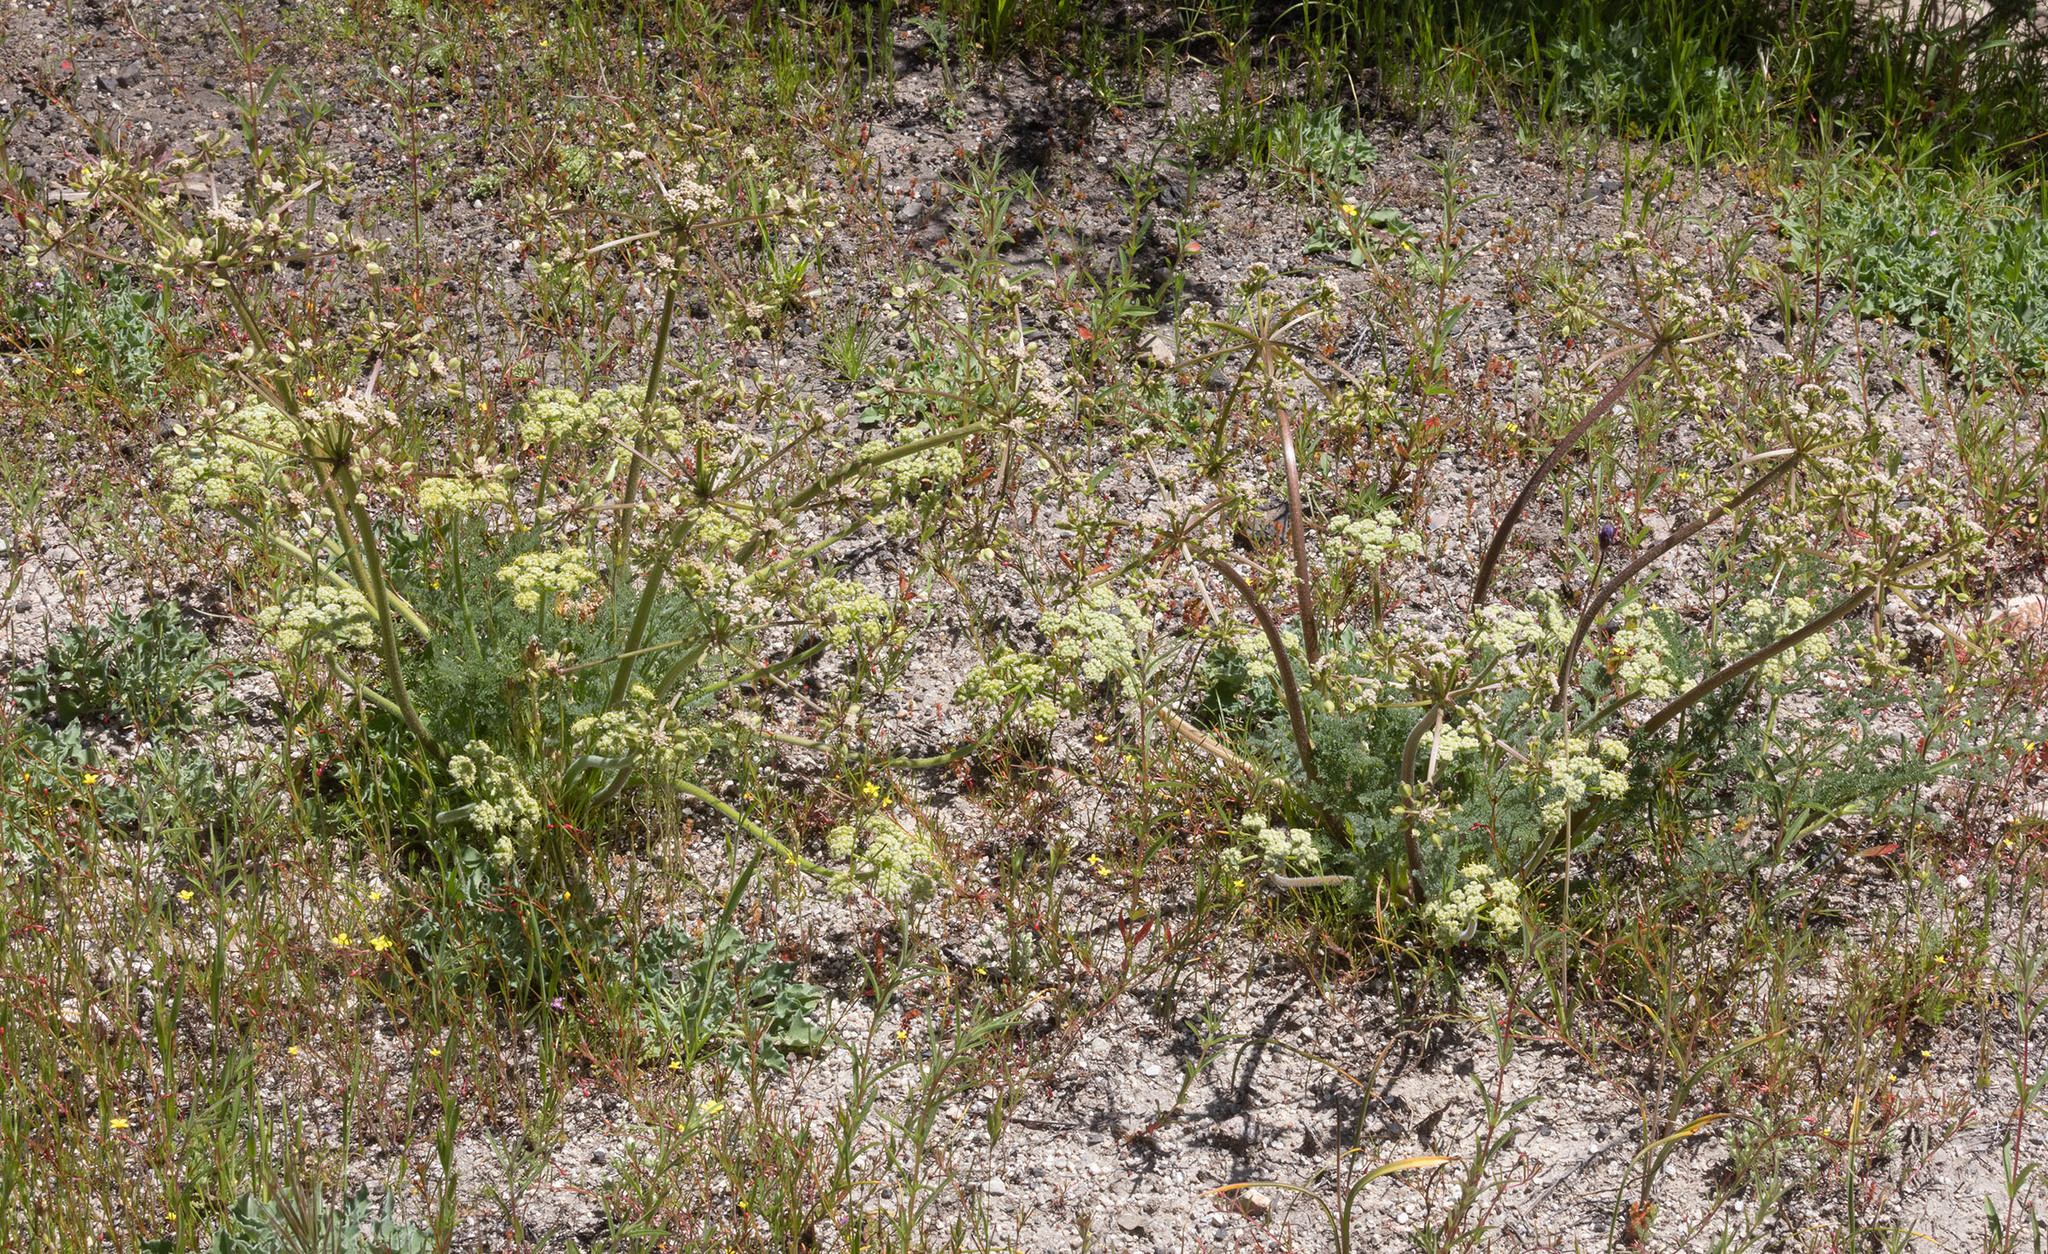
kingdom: Plantae
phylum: Tracheophyta
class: Magnoliopsida
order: Apiales
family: Apiaceae
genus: Lomatium
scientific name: Lomatium dasycarpum
